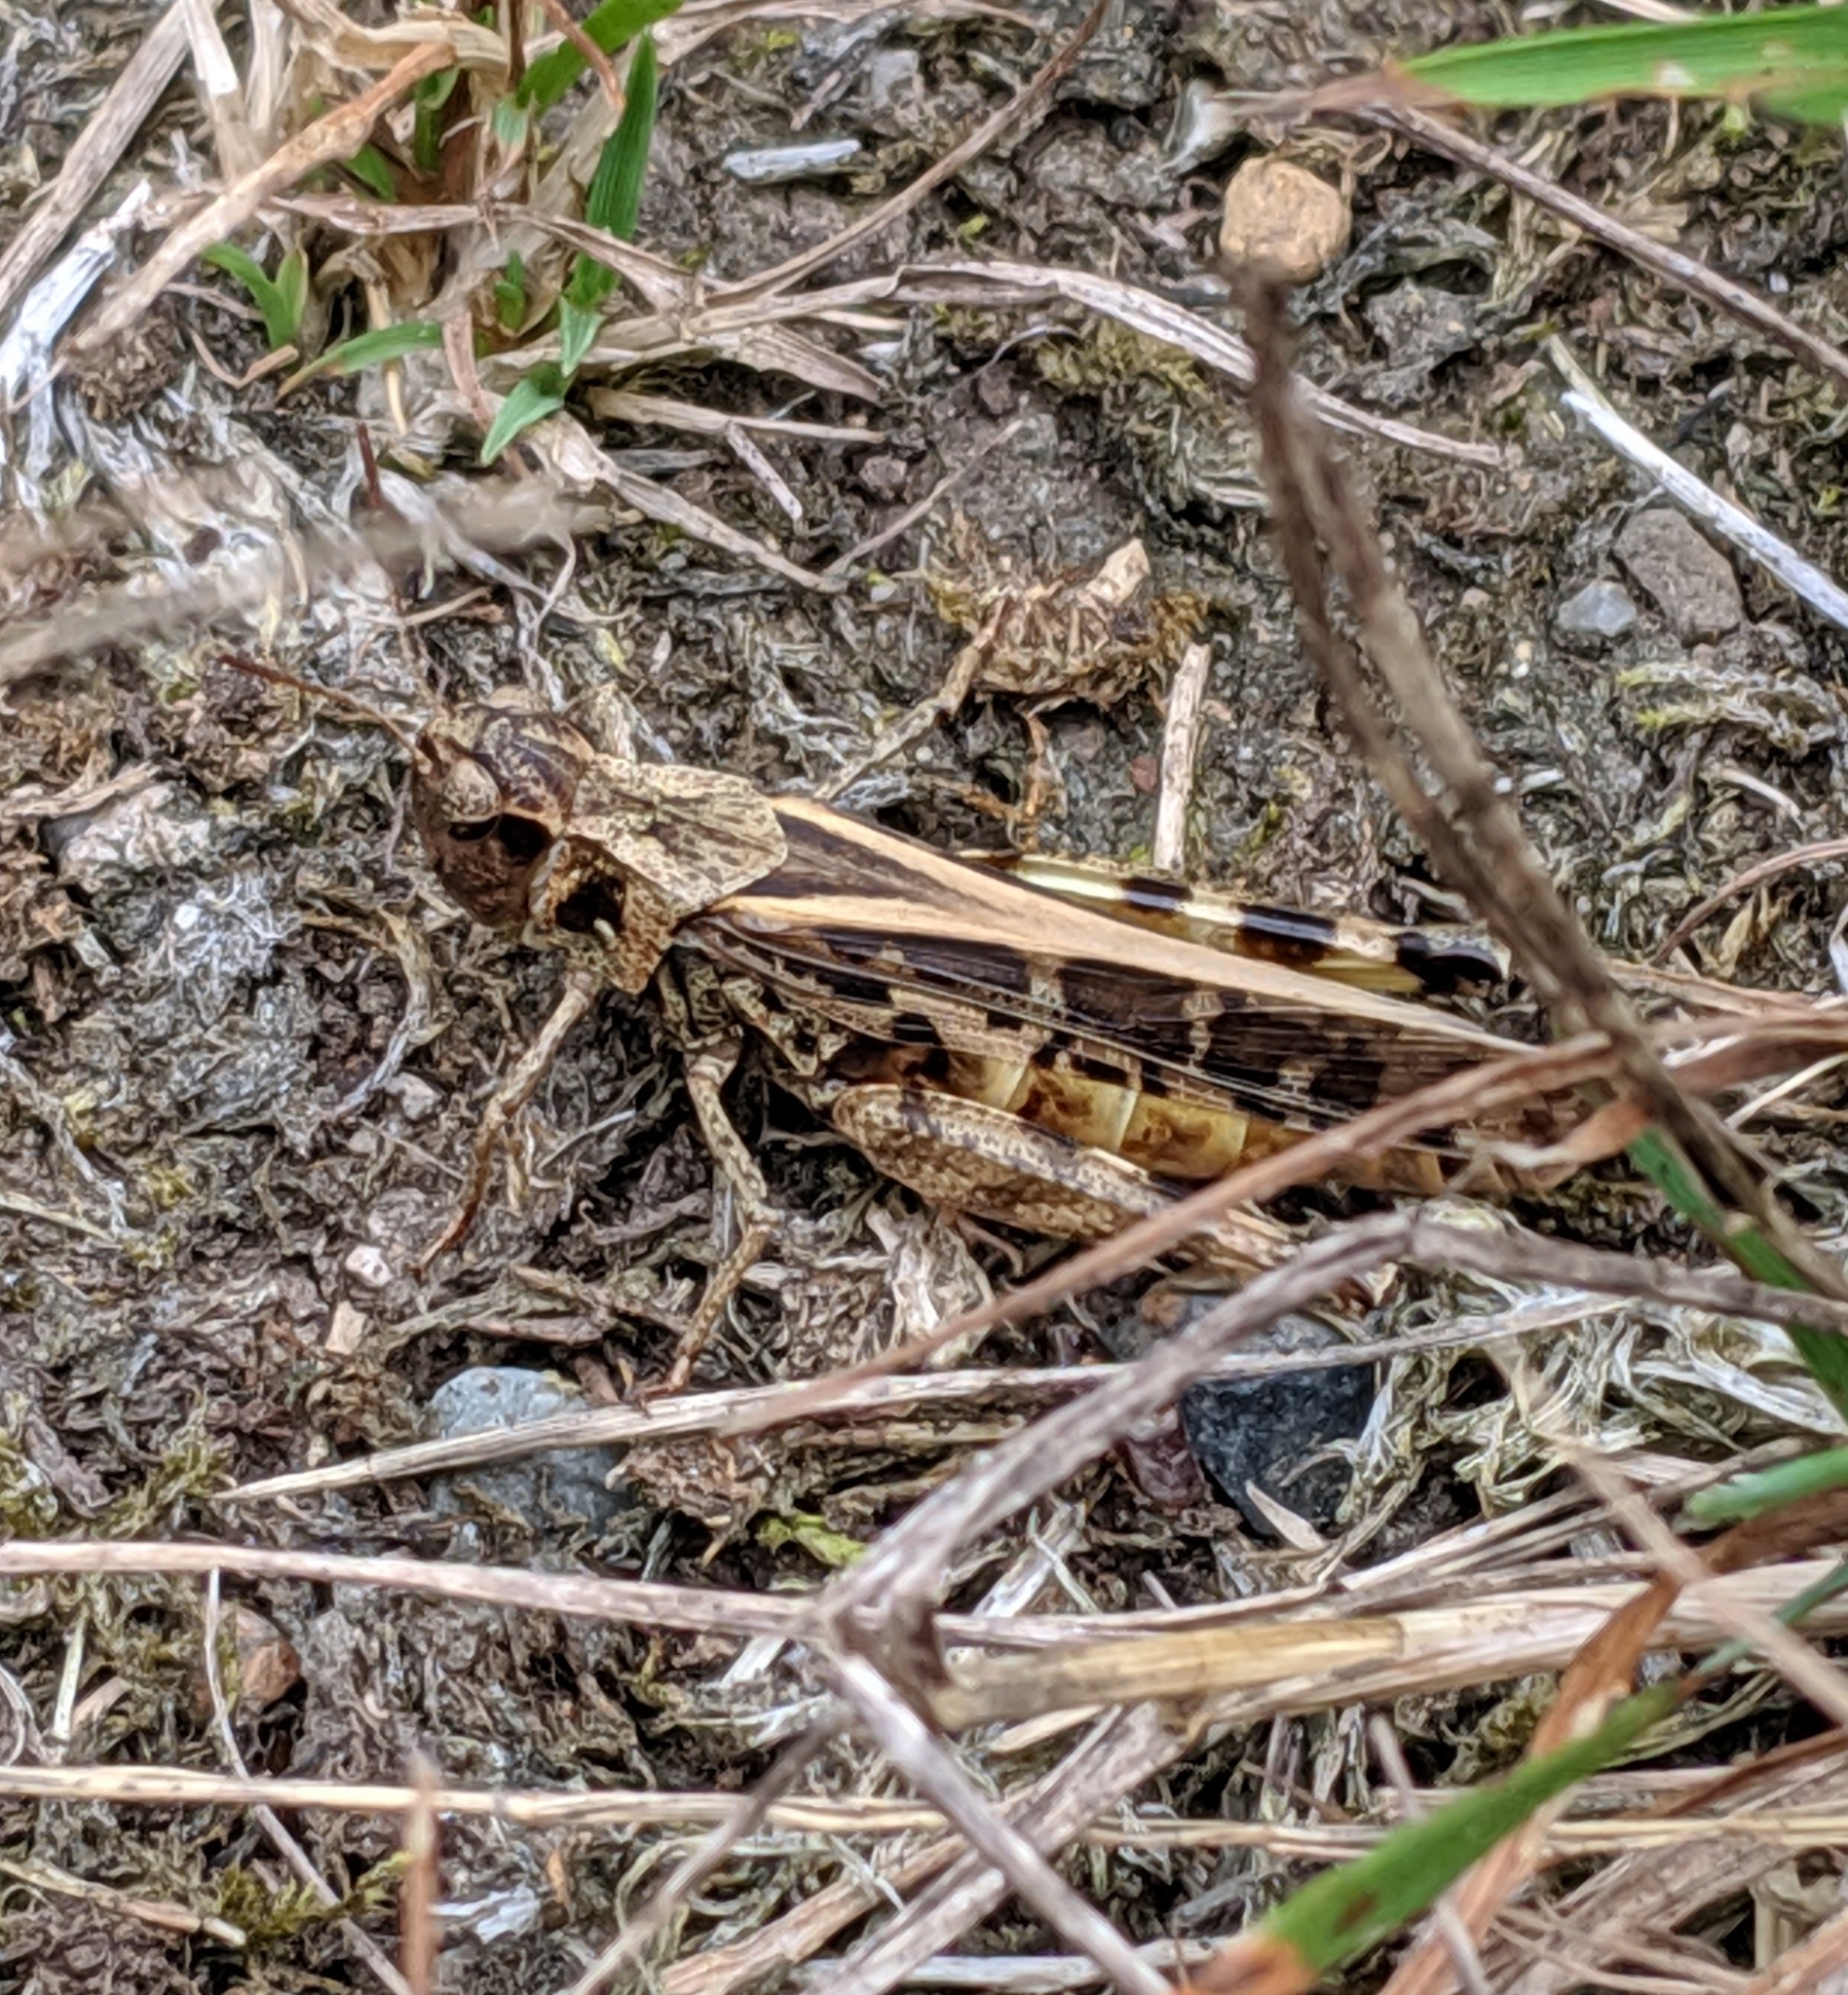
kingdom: Animalia
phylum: Arthropoda
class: Insecta
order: Orthoptera
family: Acrididae
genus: Camnula
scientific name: Camnula pellucida
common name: Clear-winged grasshopper
